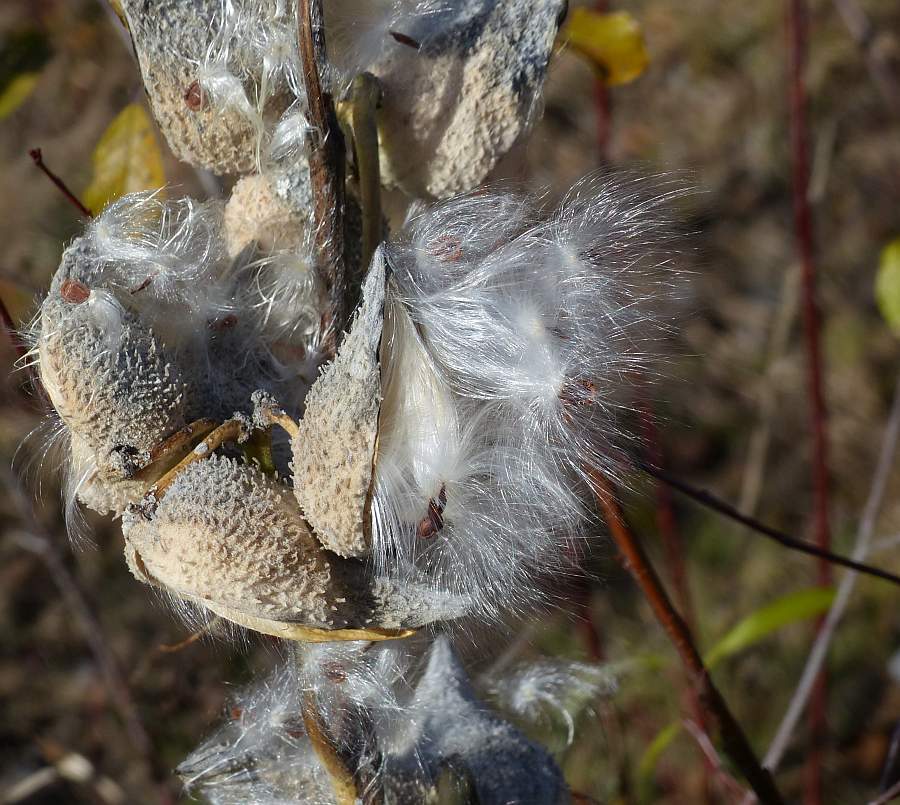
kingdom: Plantae
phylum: Tracheophyta
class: Magnoliopsida
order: Gentianales
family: Apocynaceae
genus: Asclepias
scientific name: Asclepias syriaca
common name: Common milkweed
